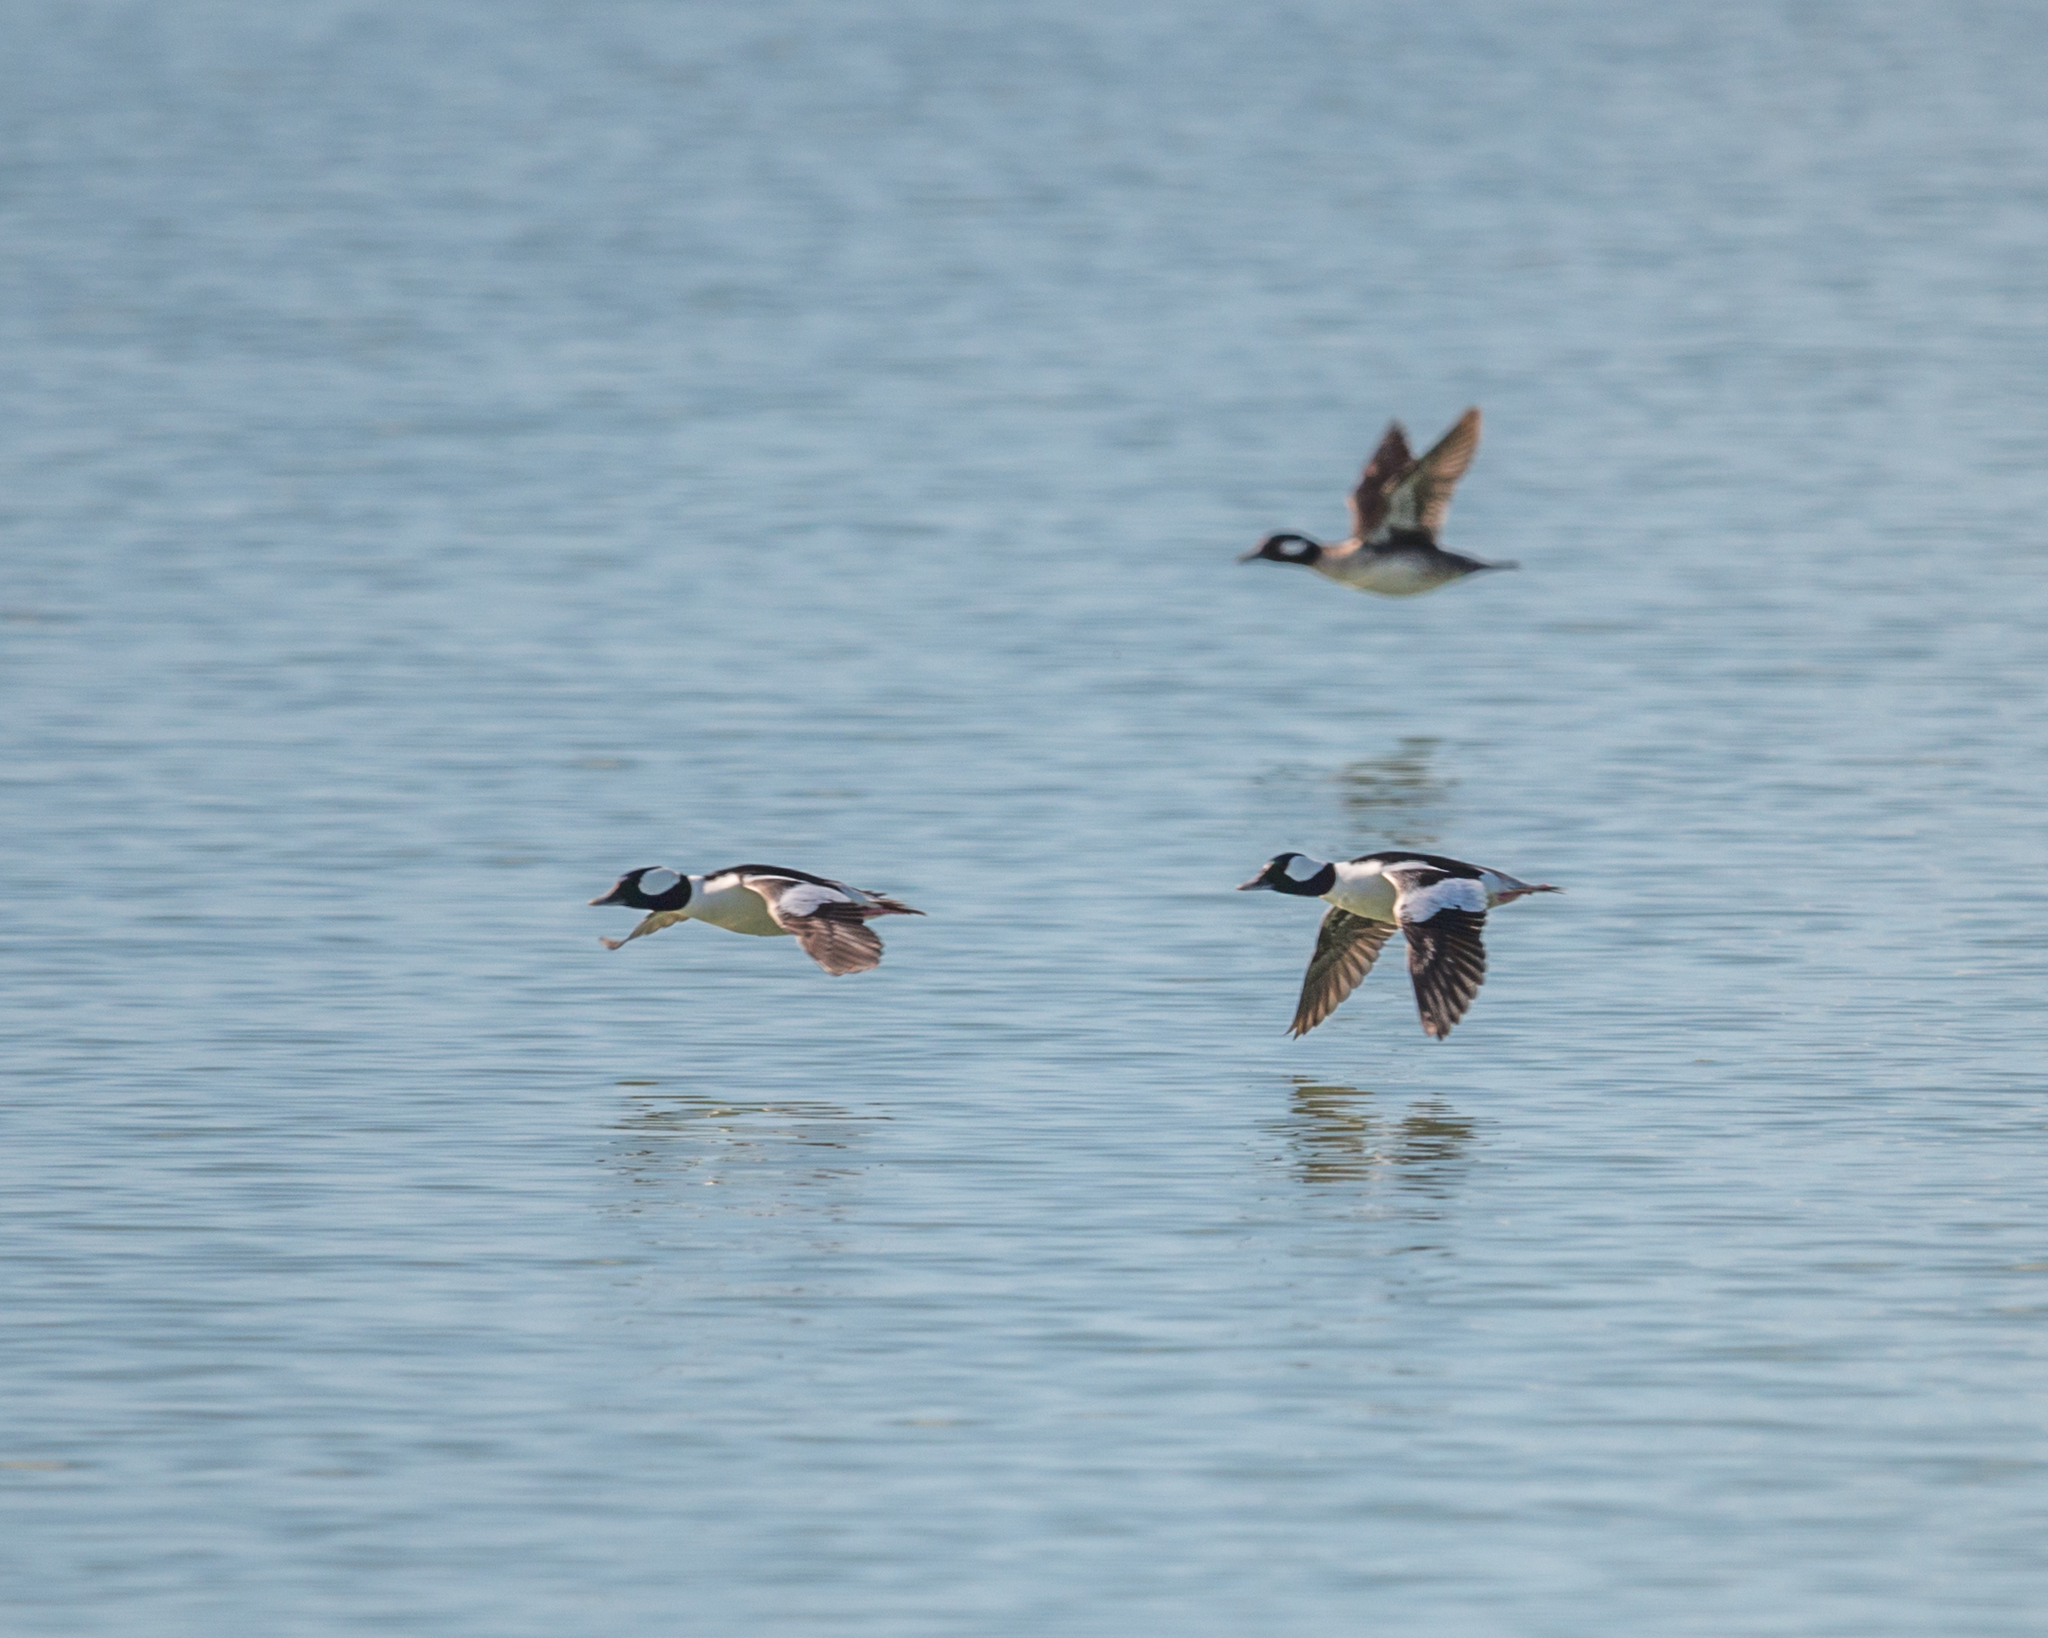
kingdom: Animalia
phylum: Chordata
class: Aves
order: Anseriformes
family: Anatidae
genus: Bucephala
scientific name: Bucephala albeola
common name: Bufflehead
